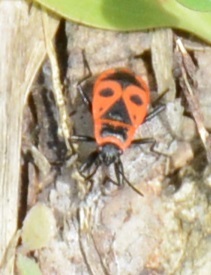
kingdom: Animalia
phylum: Arthropoda
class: Insecta
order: Hemiptera
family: Pyrrhocoridae
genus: Pyrrhocoris
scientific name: Pyrrhocoris apterus
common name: Firebug
